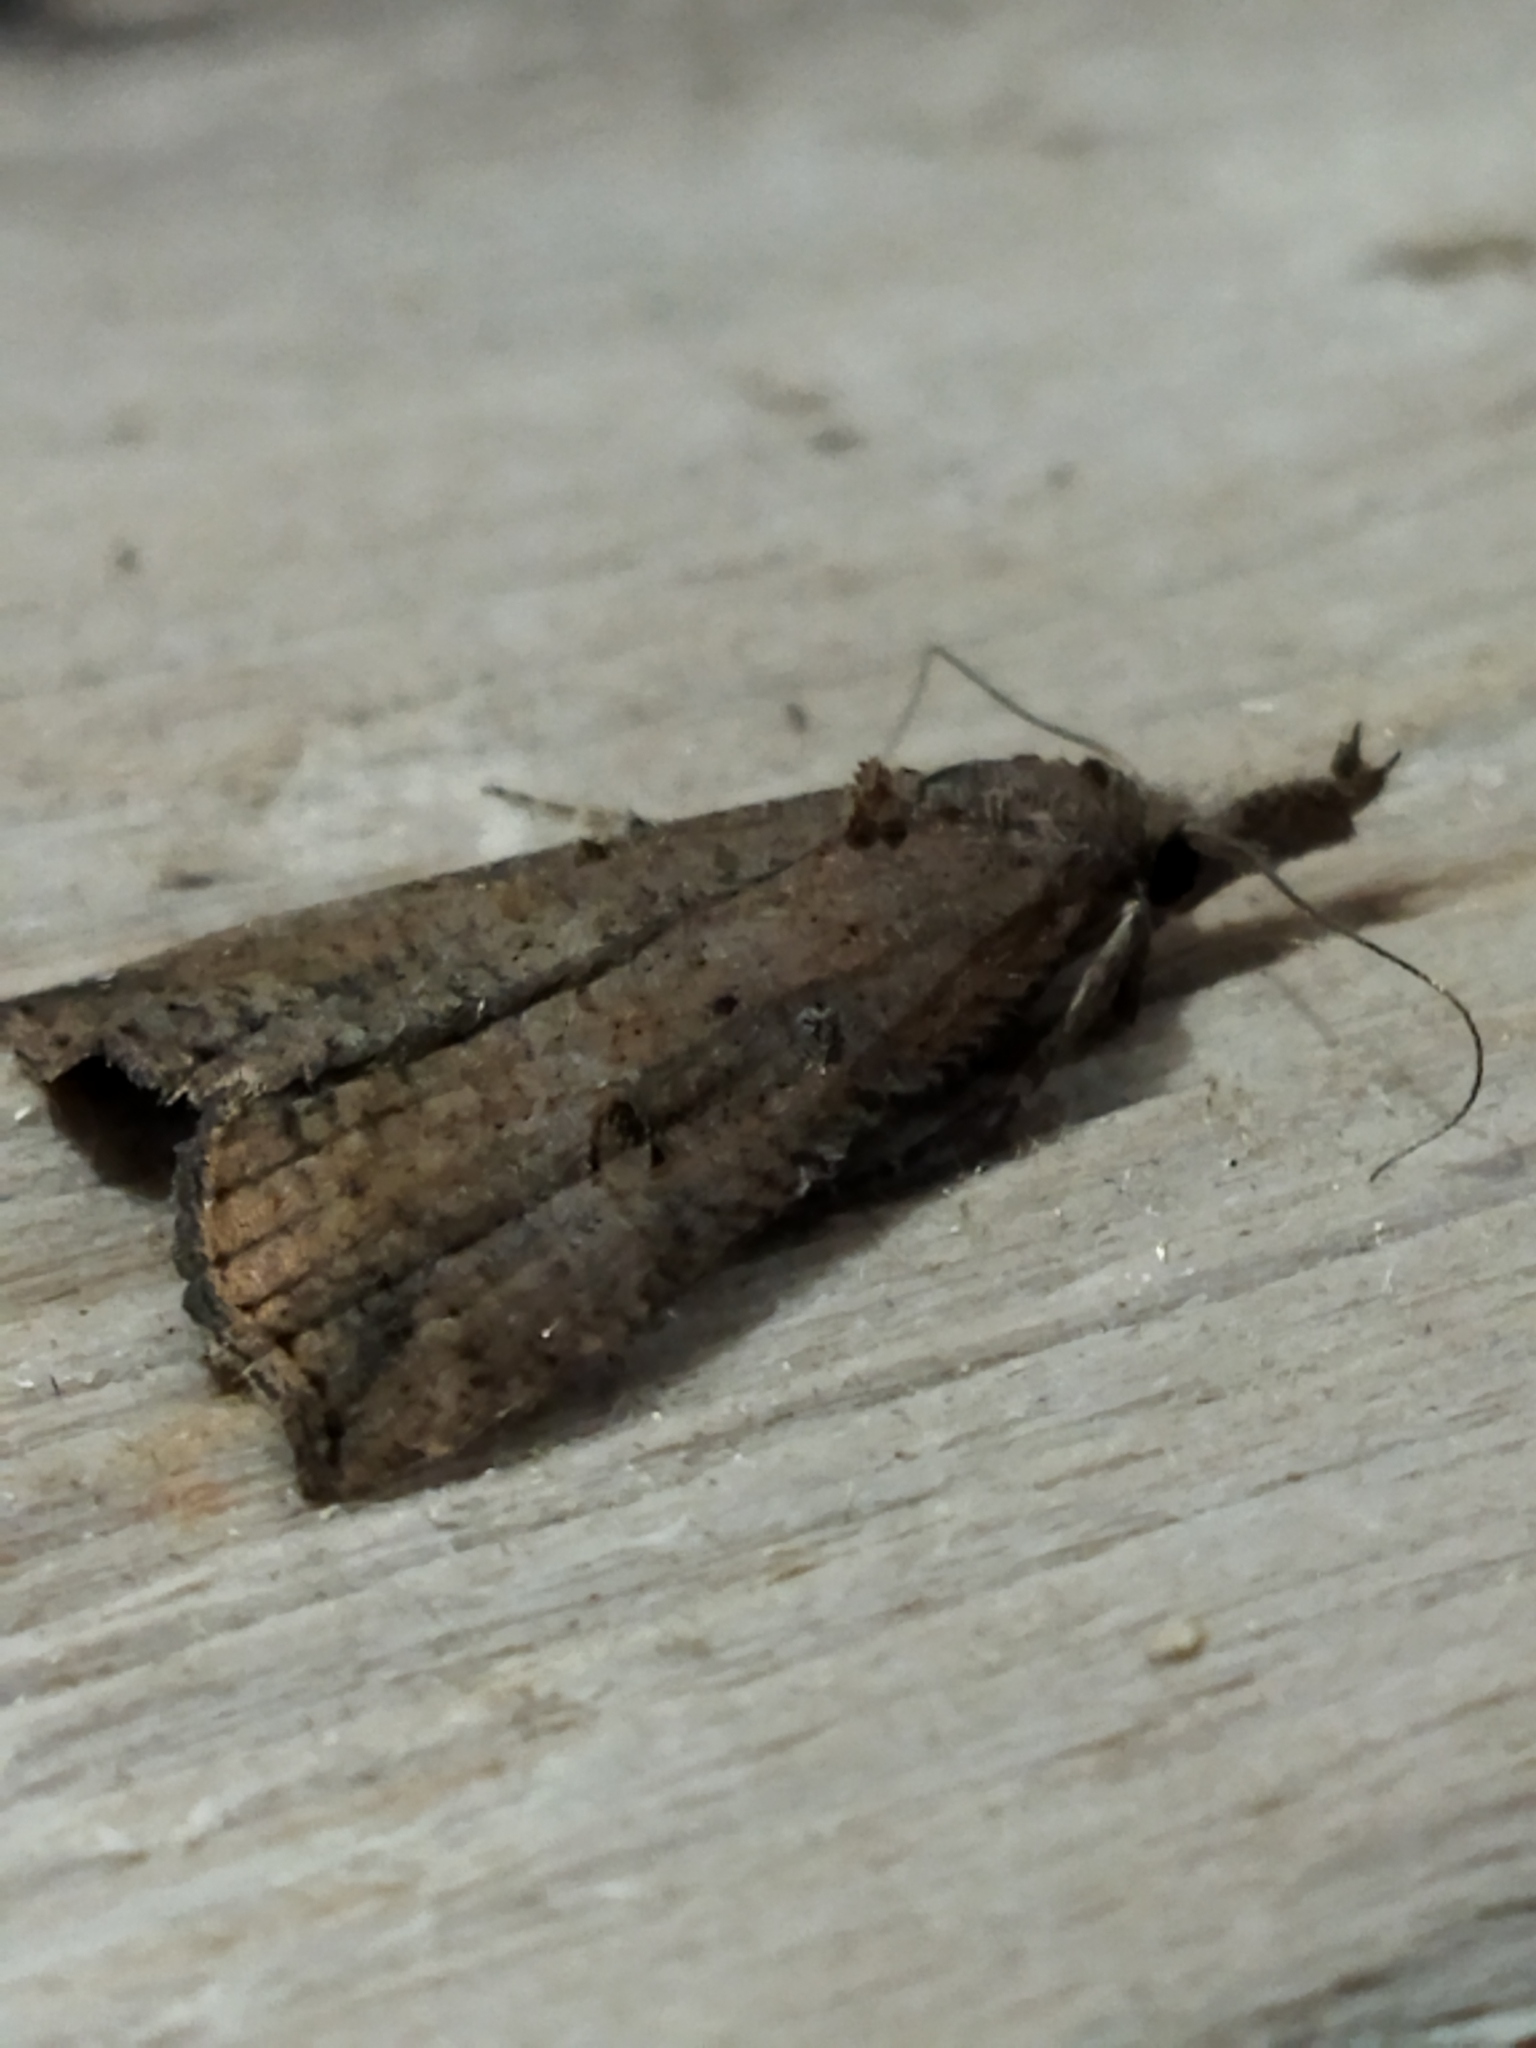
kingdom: Animalia
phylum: Arthropoda
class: Insecta
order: Lepidoptera
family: Erebidae
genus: Hypena
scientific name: Hypena rostralis
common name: Buttoned snout
